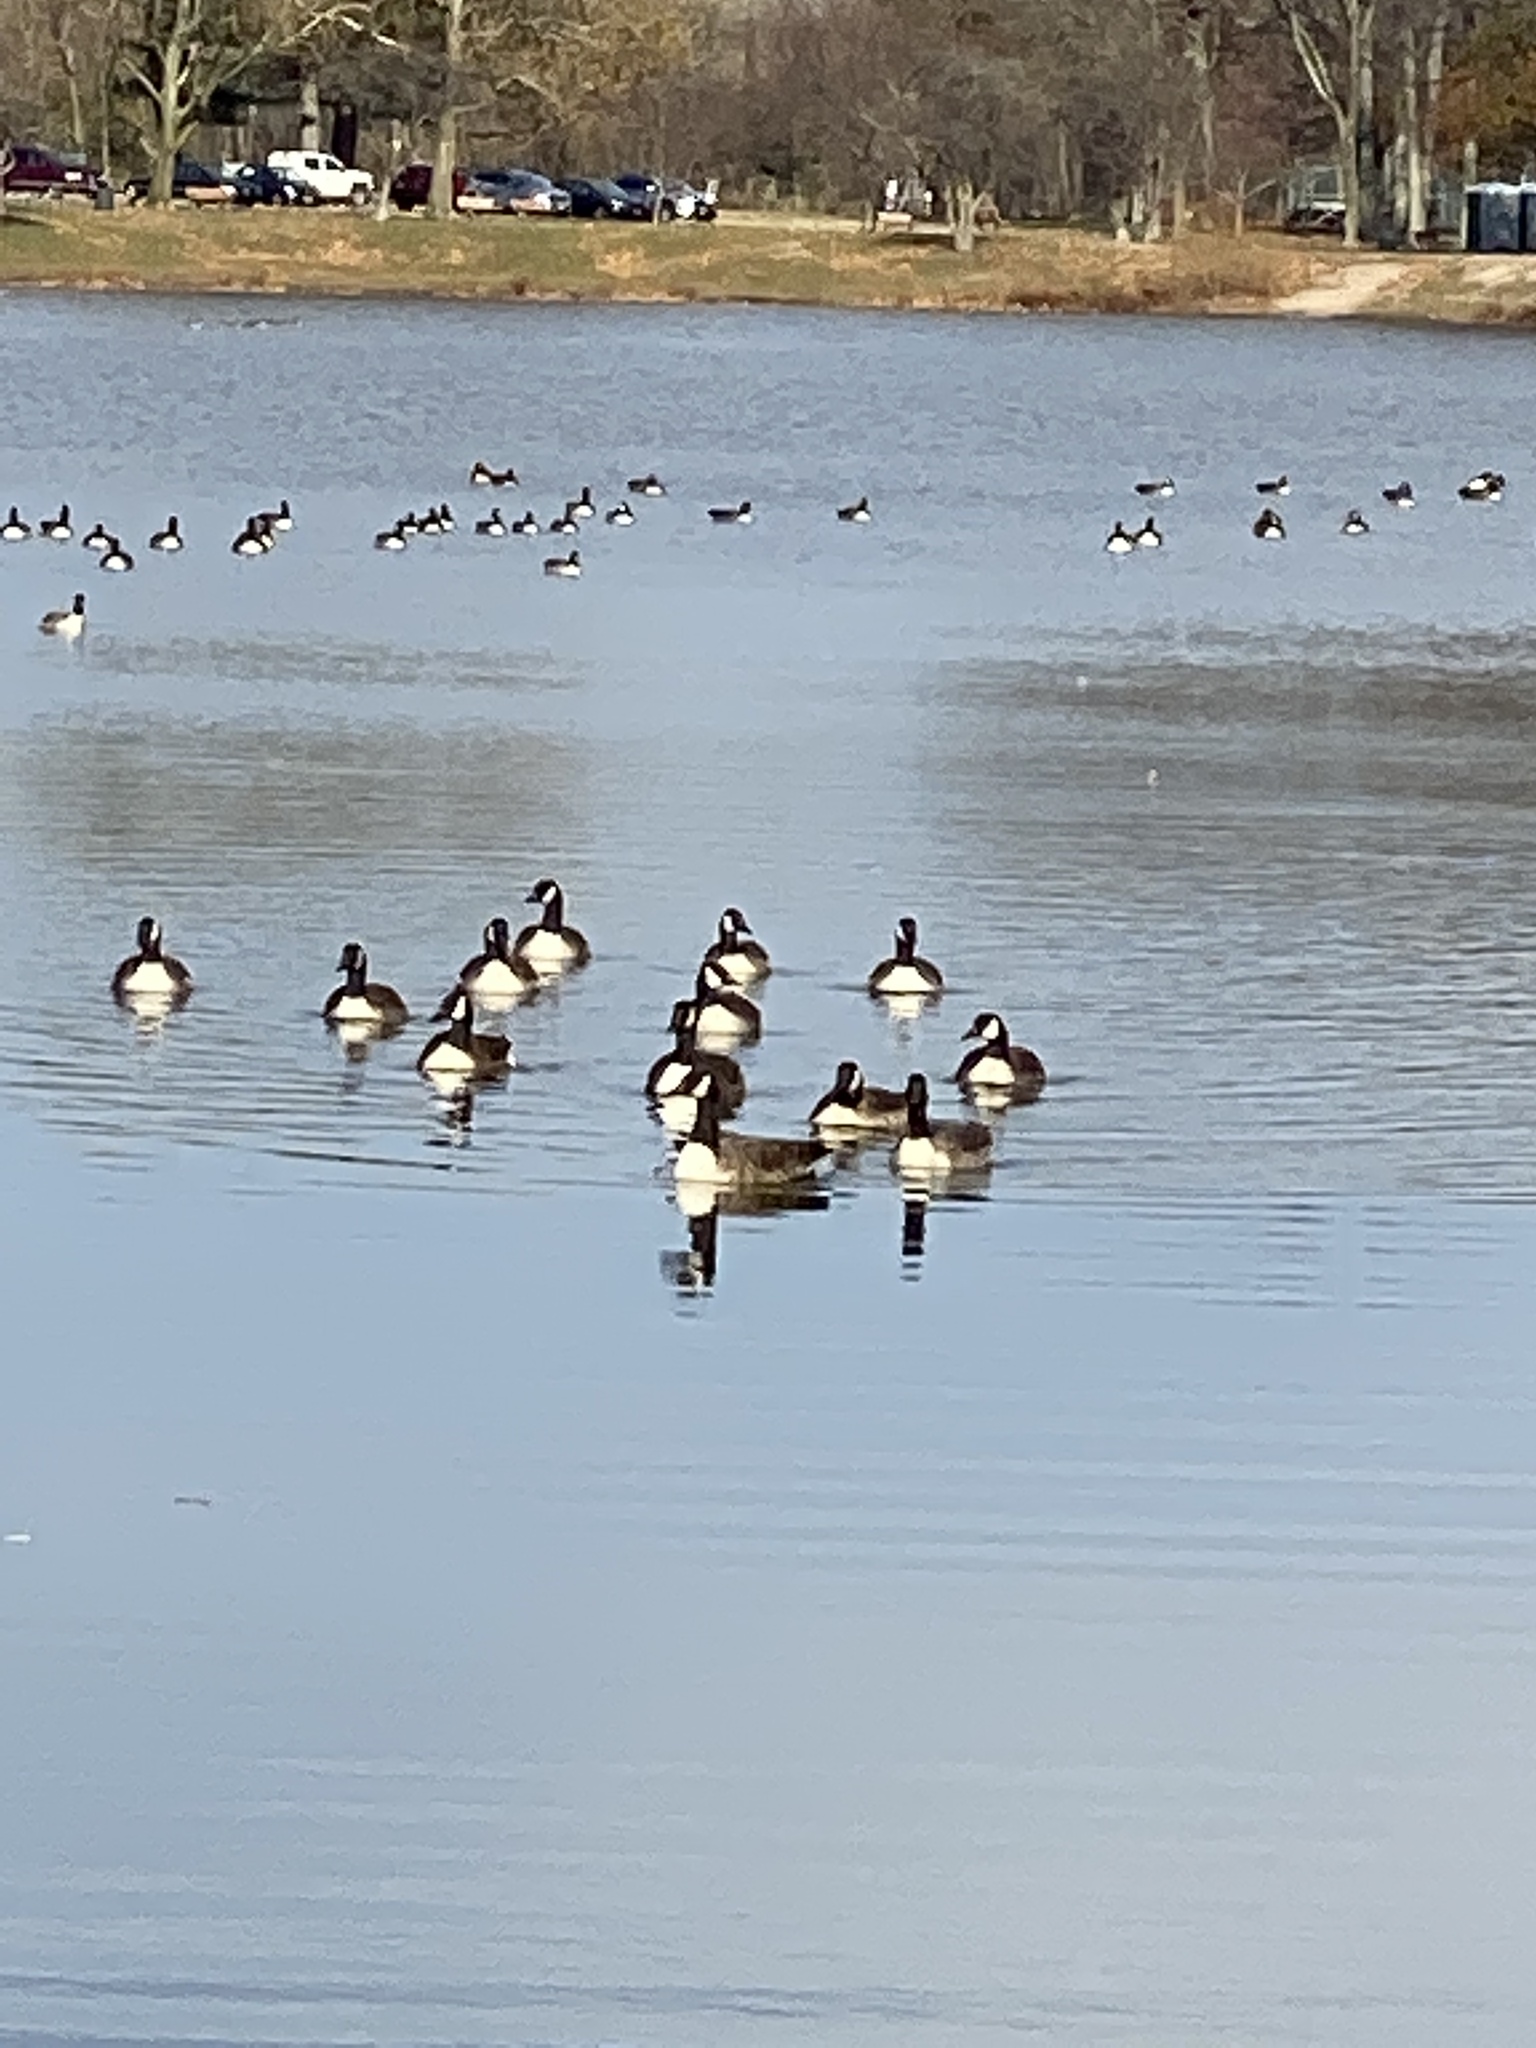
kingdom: Animalia
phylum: Chordata
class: Aves
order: Anseriformes
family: Anatidae
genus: Branta
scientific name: Branta canadensis
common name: Canada goose
